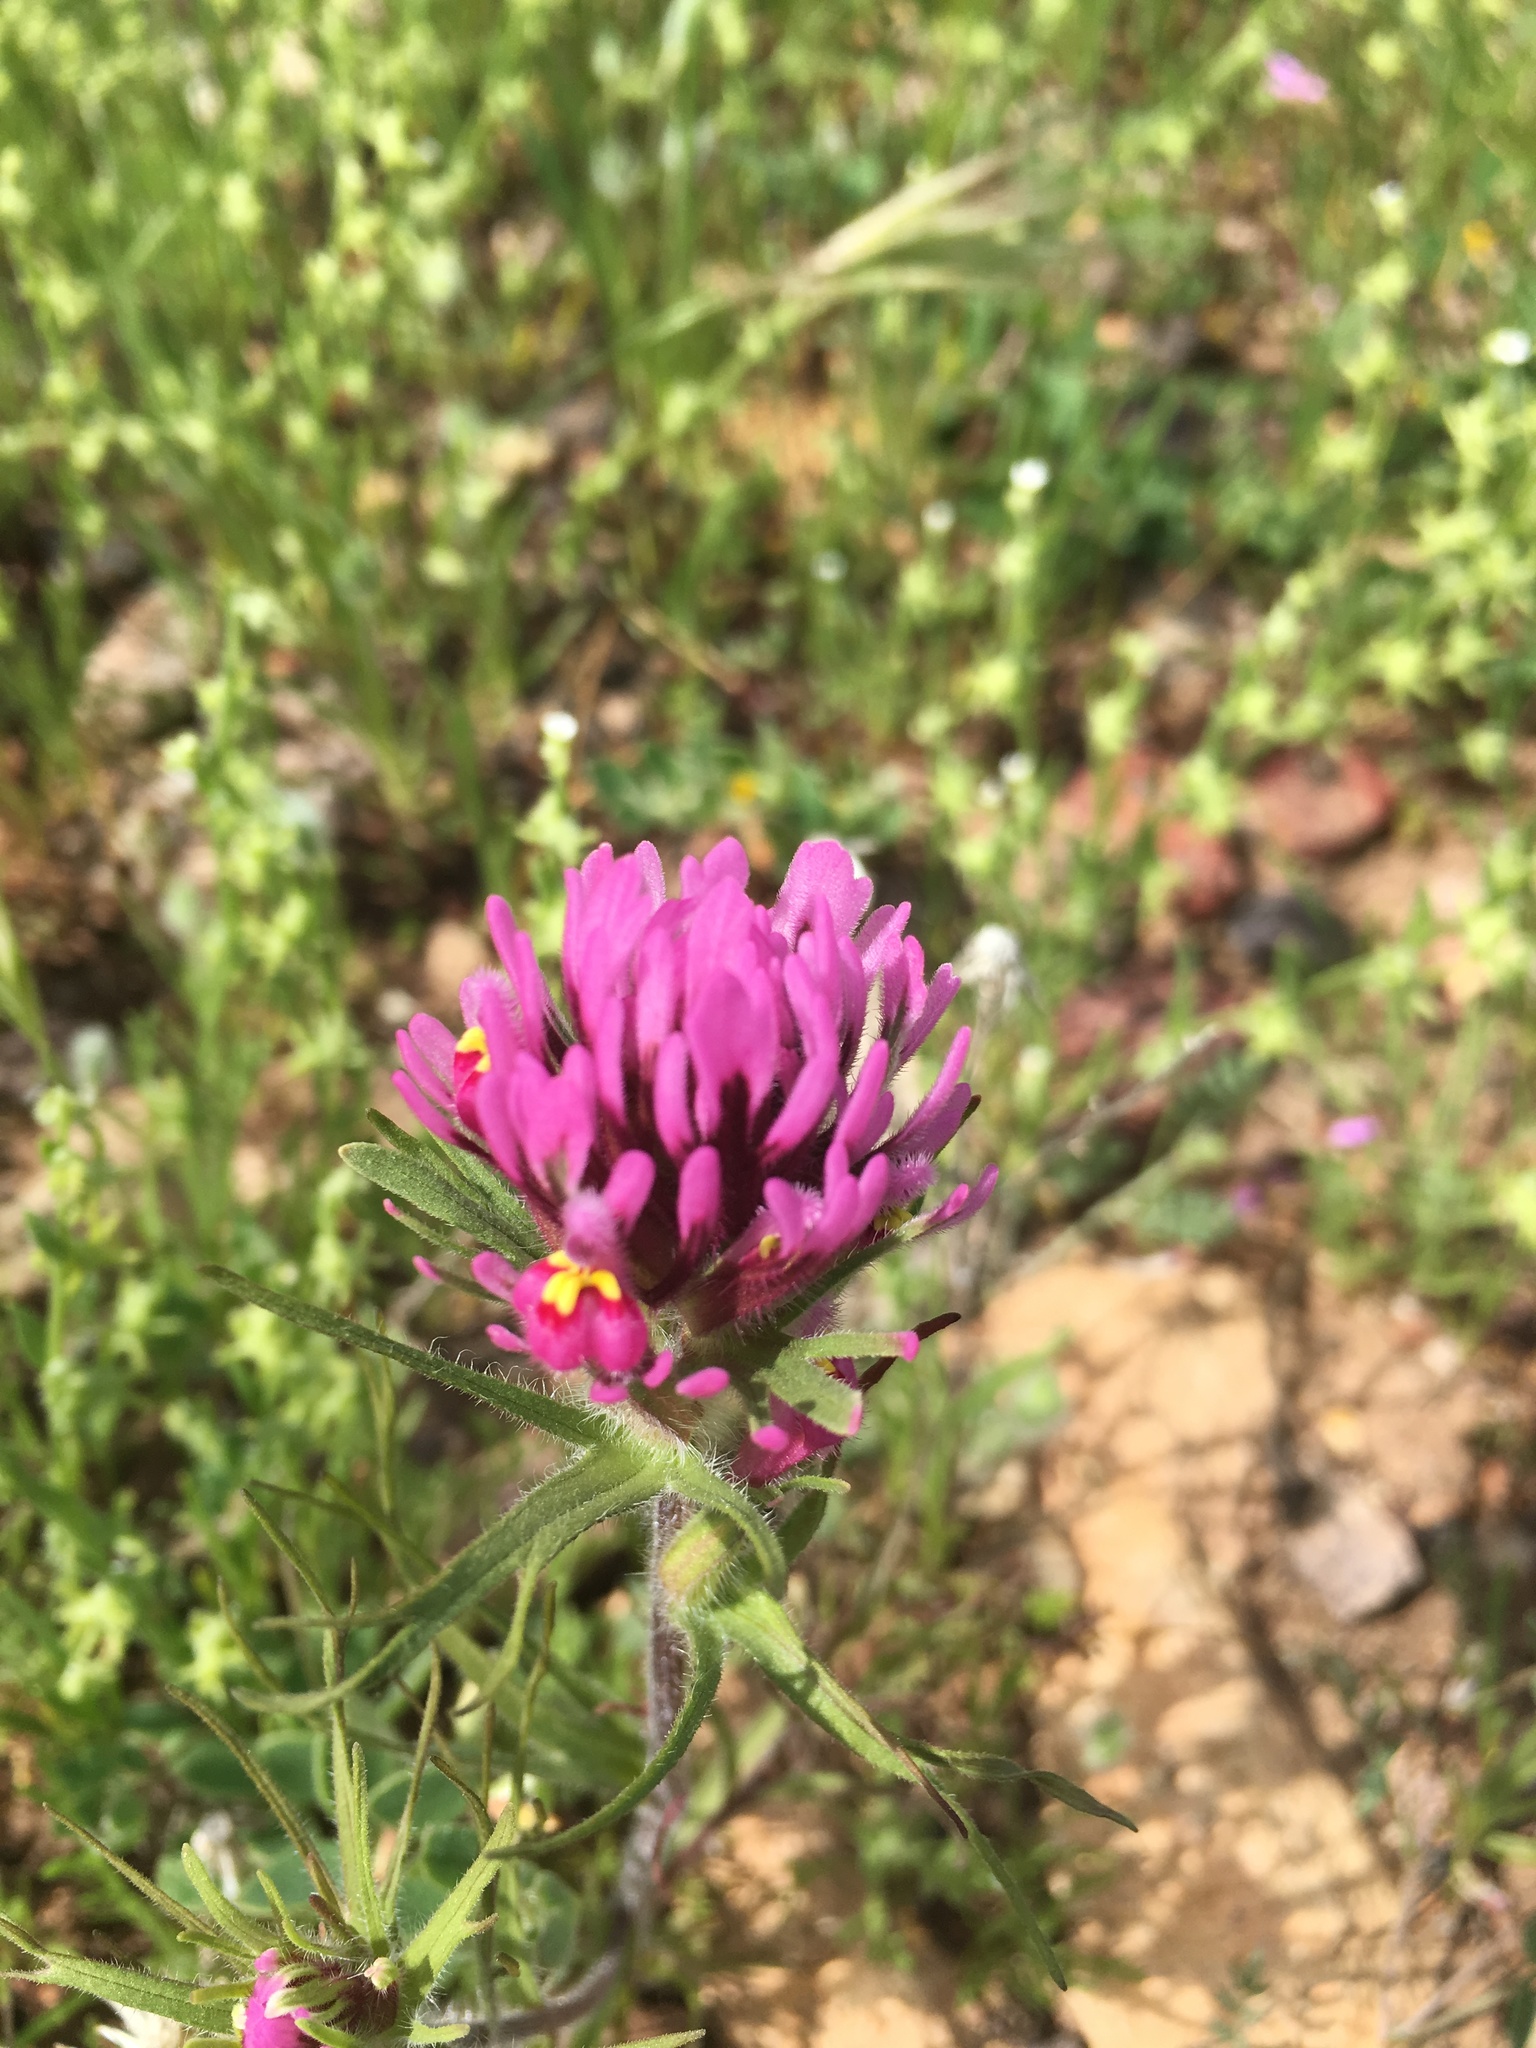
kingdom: Plantae
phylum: Tracheophyta
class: Magnoliopsida
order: Lamiales
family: Orobanchaceae
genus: Castilleja
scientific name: Castilleja exserta
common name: Purple owl-clover
